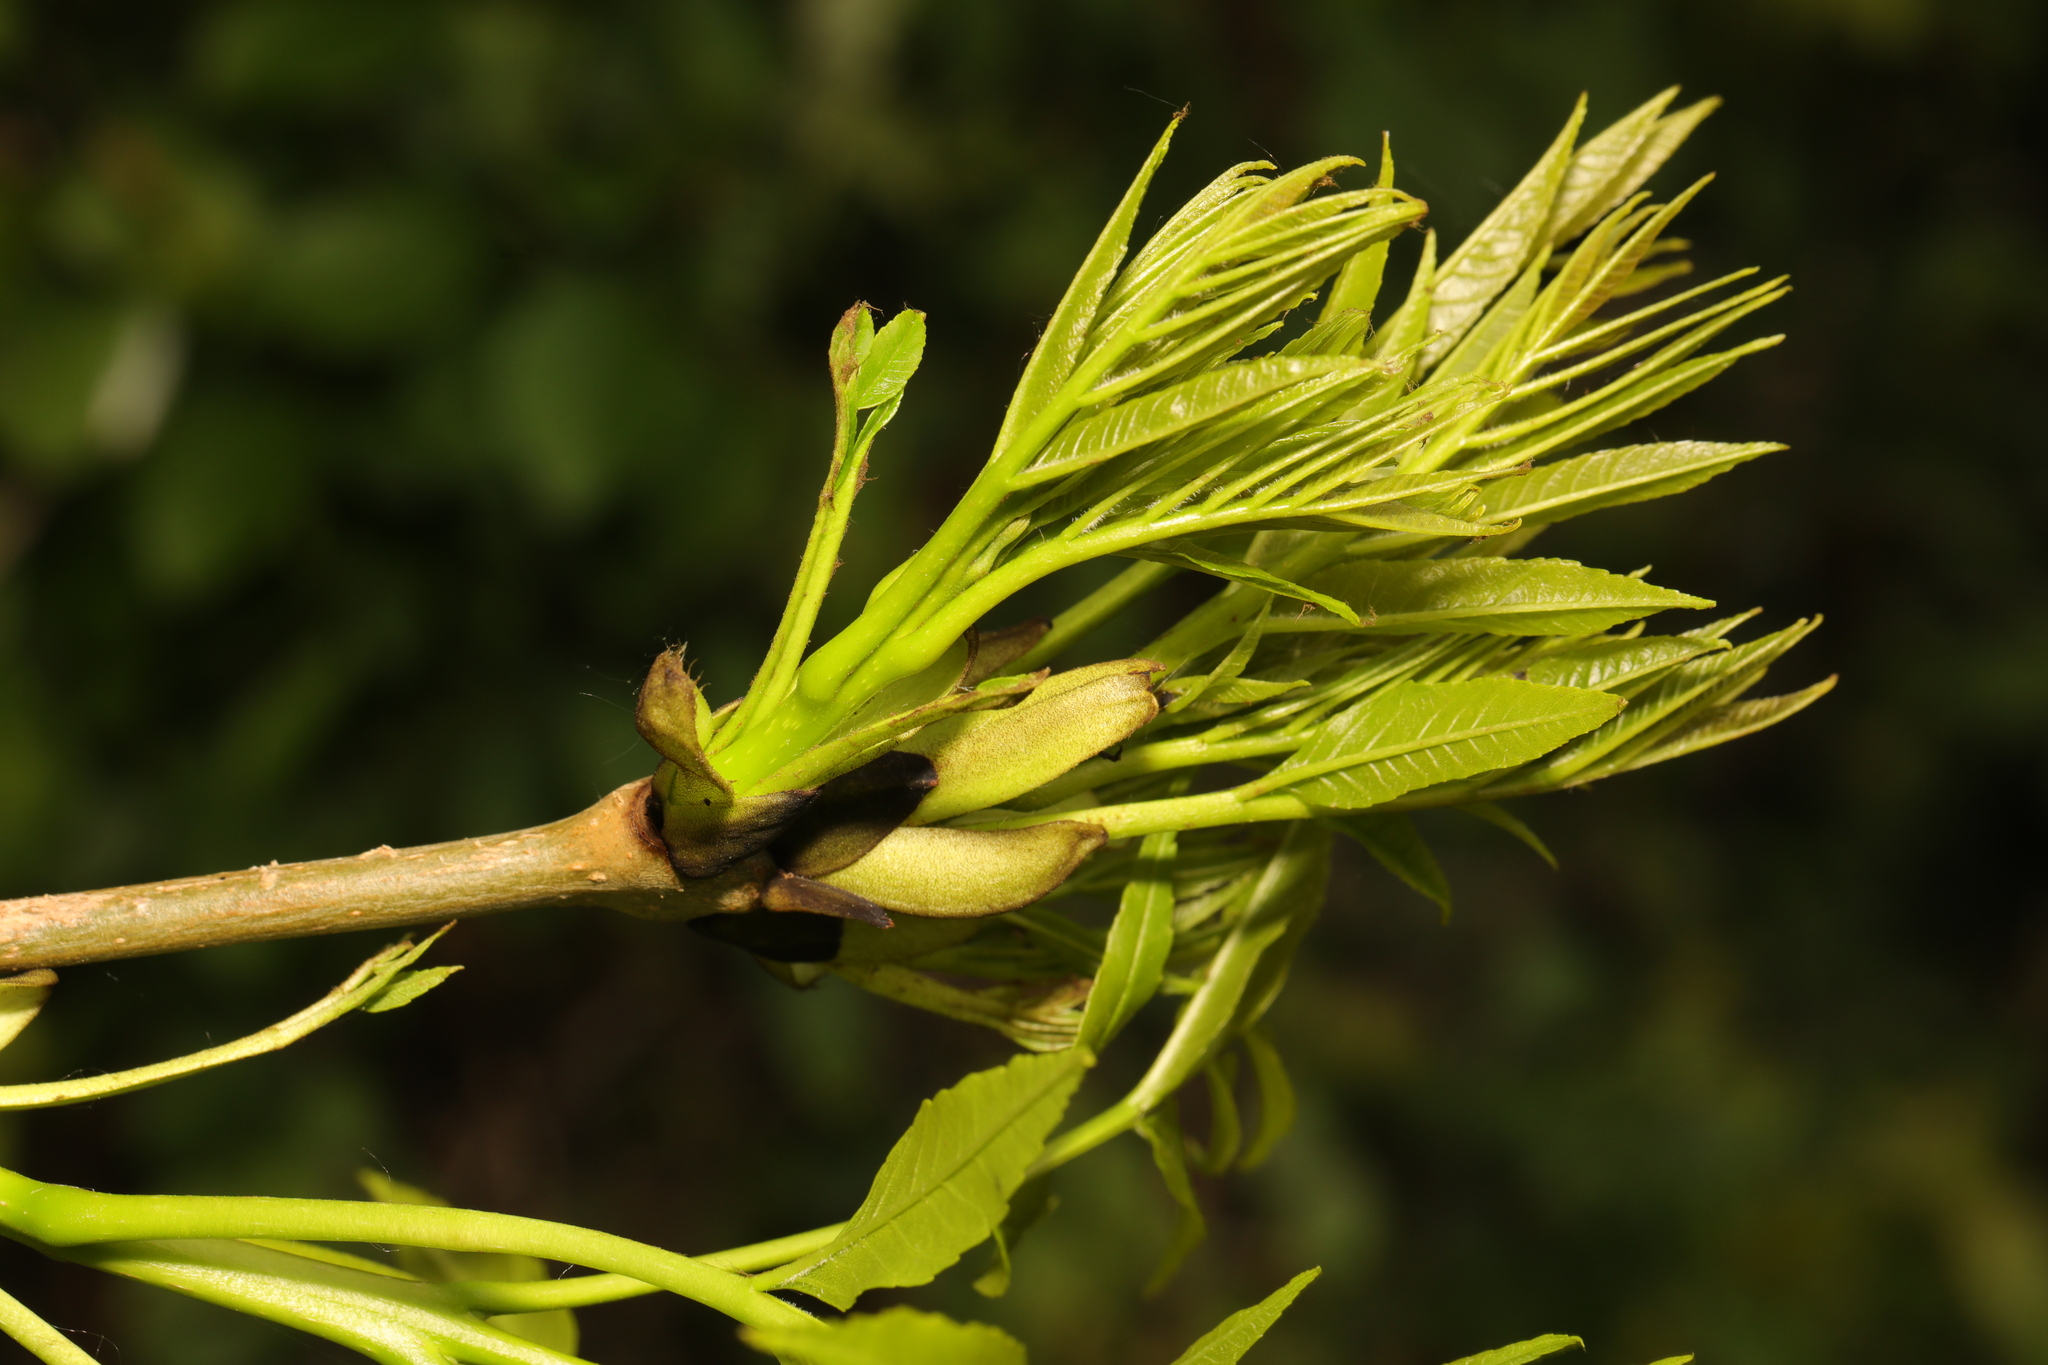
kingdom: Plantae
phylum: Tracheophyta
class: Magnoliopsida
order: Lamiales
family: Oleaceae
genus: Fraxinus
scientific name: Fraxinus excelsior
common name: European ash
